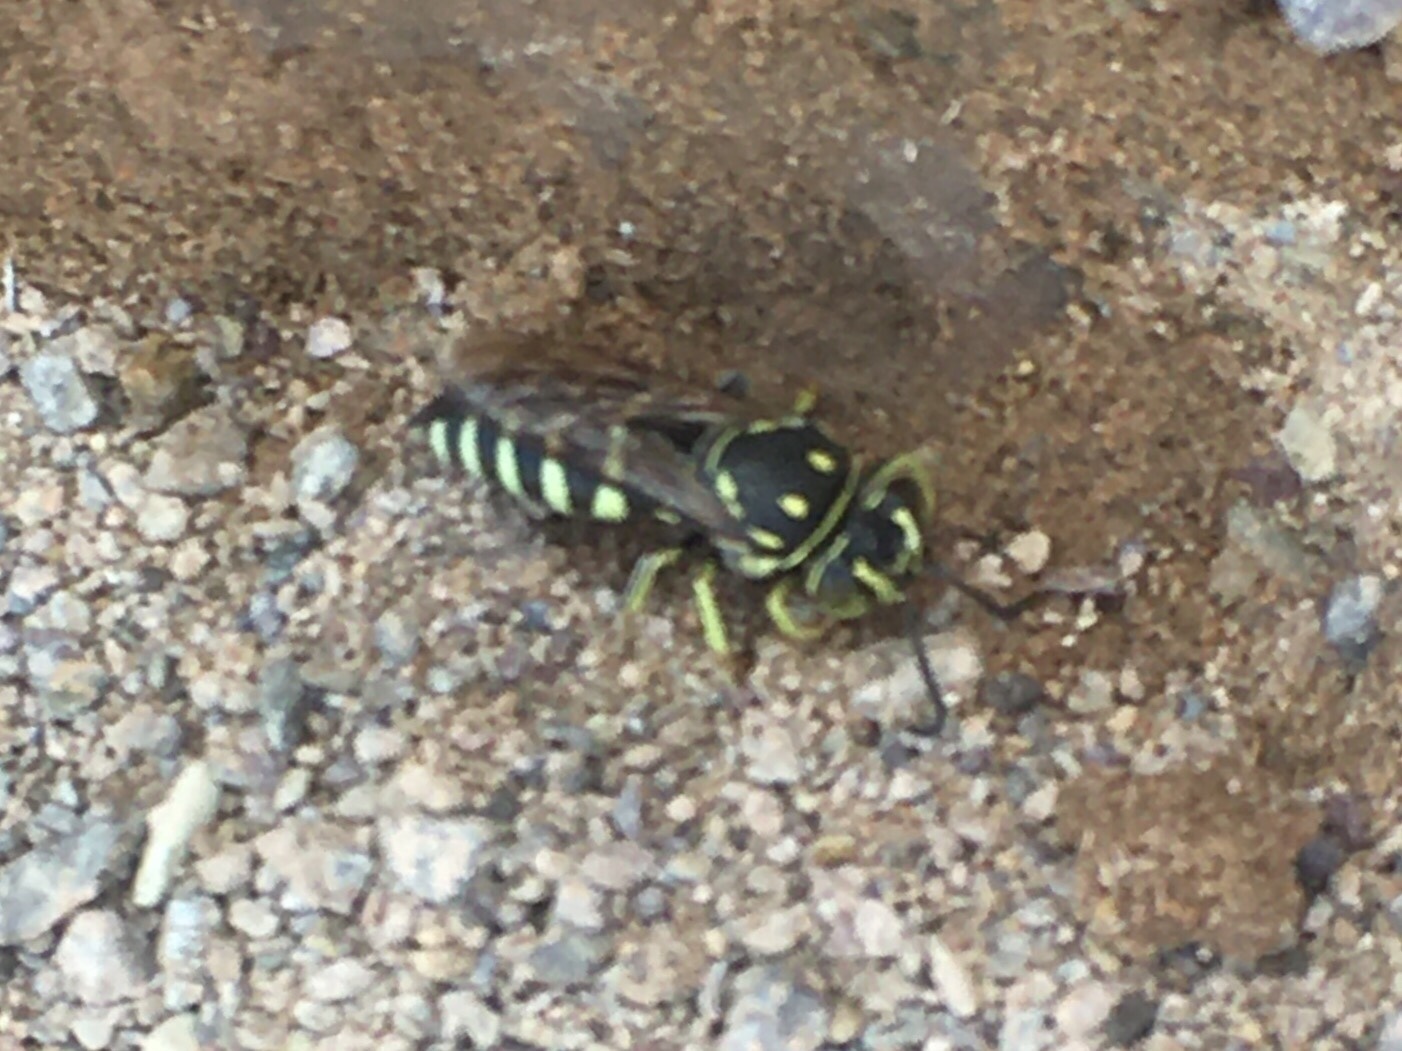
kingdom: Animalia
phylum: Arthropoda
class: Insecta
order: Hymenoptera
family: Crabronidae
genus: Bicyrtes
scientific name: Bicyrtes discisus
